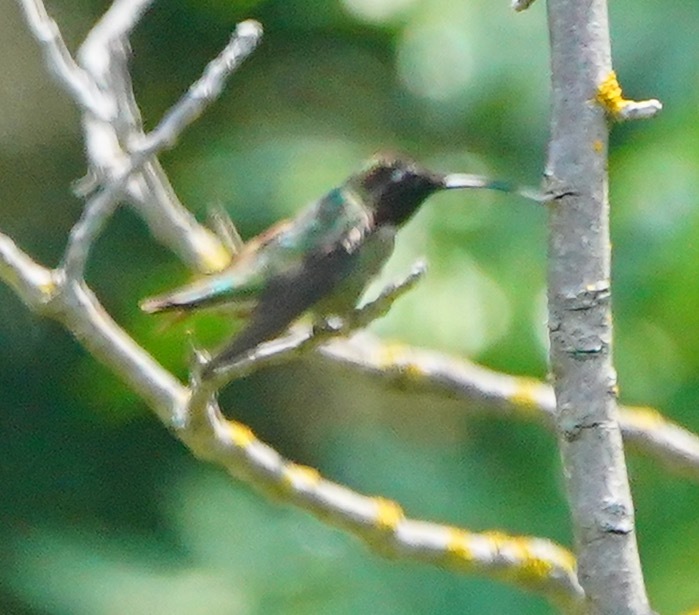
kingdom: Animalia
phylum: Chordata
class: Aves
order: Apodiformes
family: Trochilidae
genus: Calypte
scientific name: Calypte anna
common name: Anna's hummingbird
